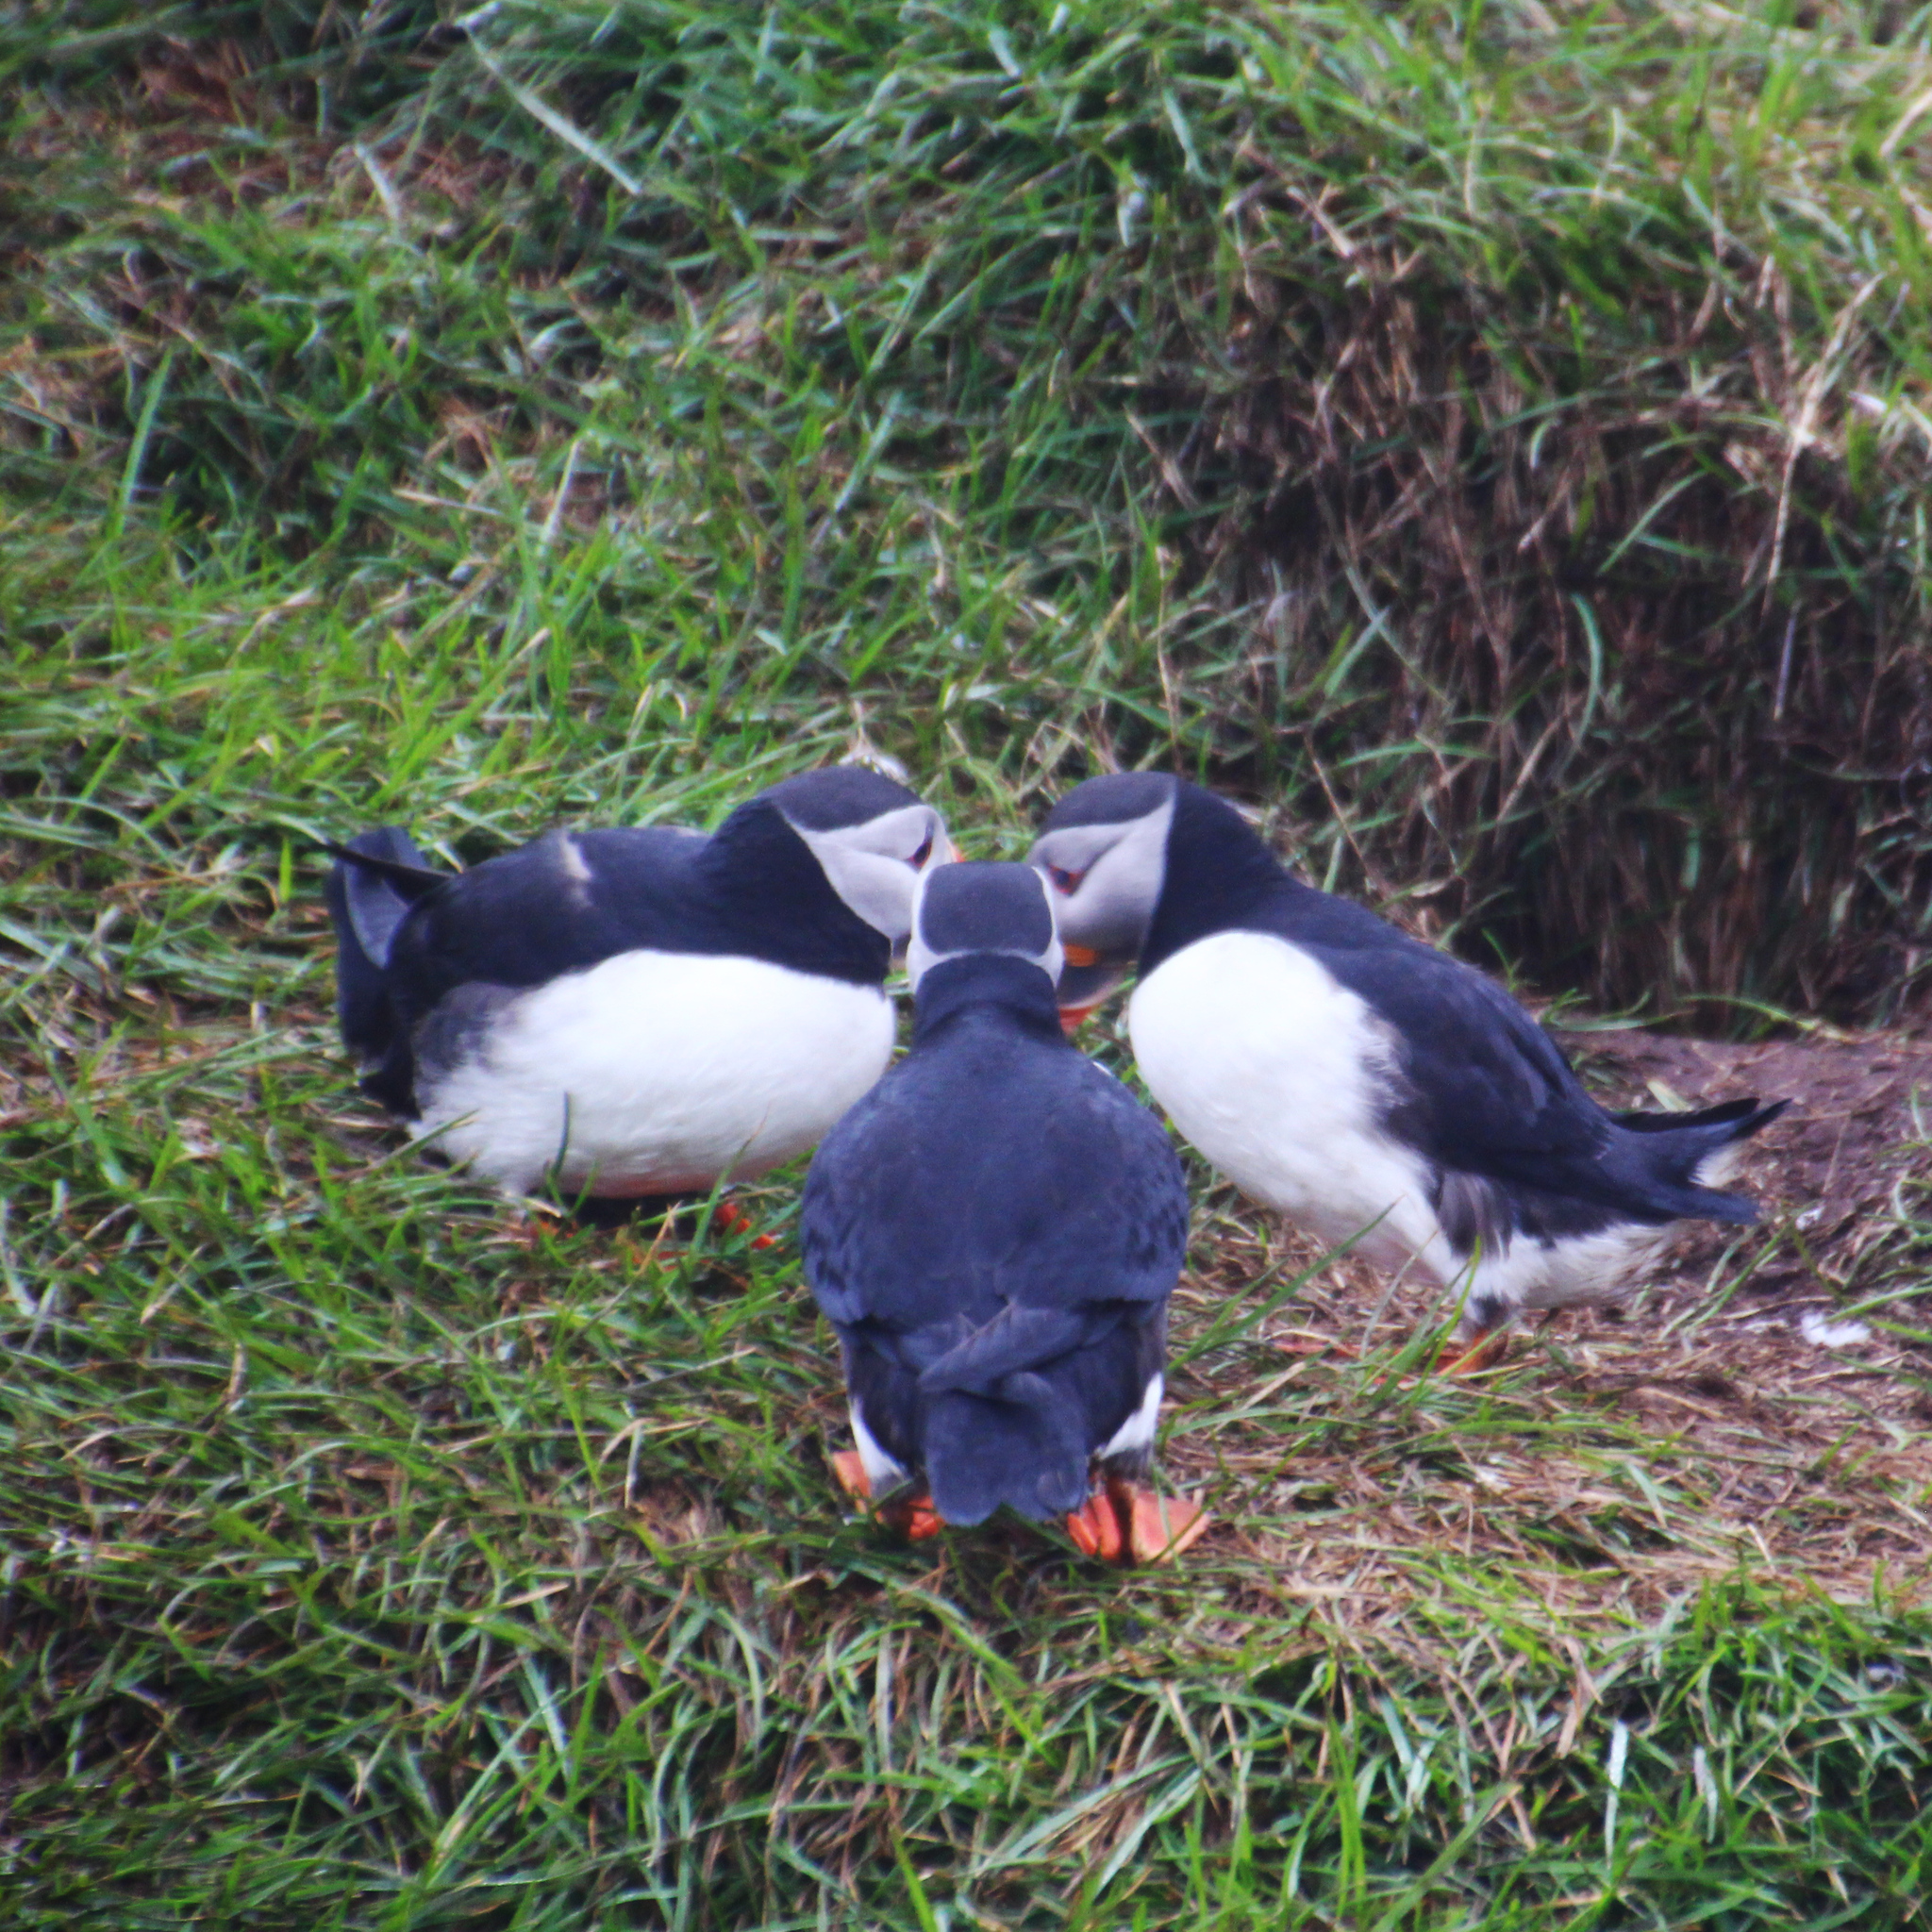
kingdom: Animalia
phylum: Chordata
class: Aves
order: Charadriiformes
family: Alcidae
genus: Fratercula
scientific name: Fratercula arctica
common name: Atlantic puffin
